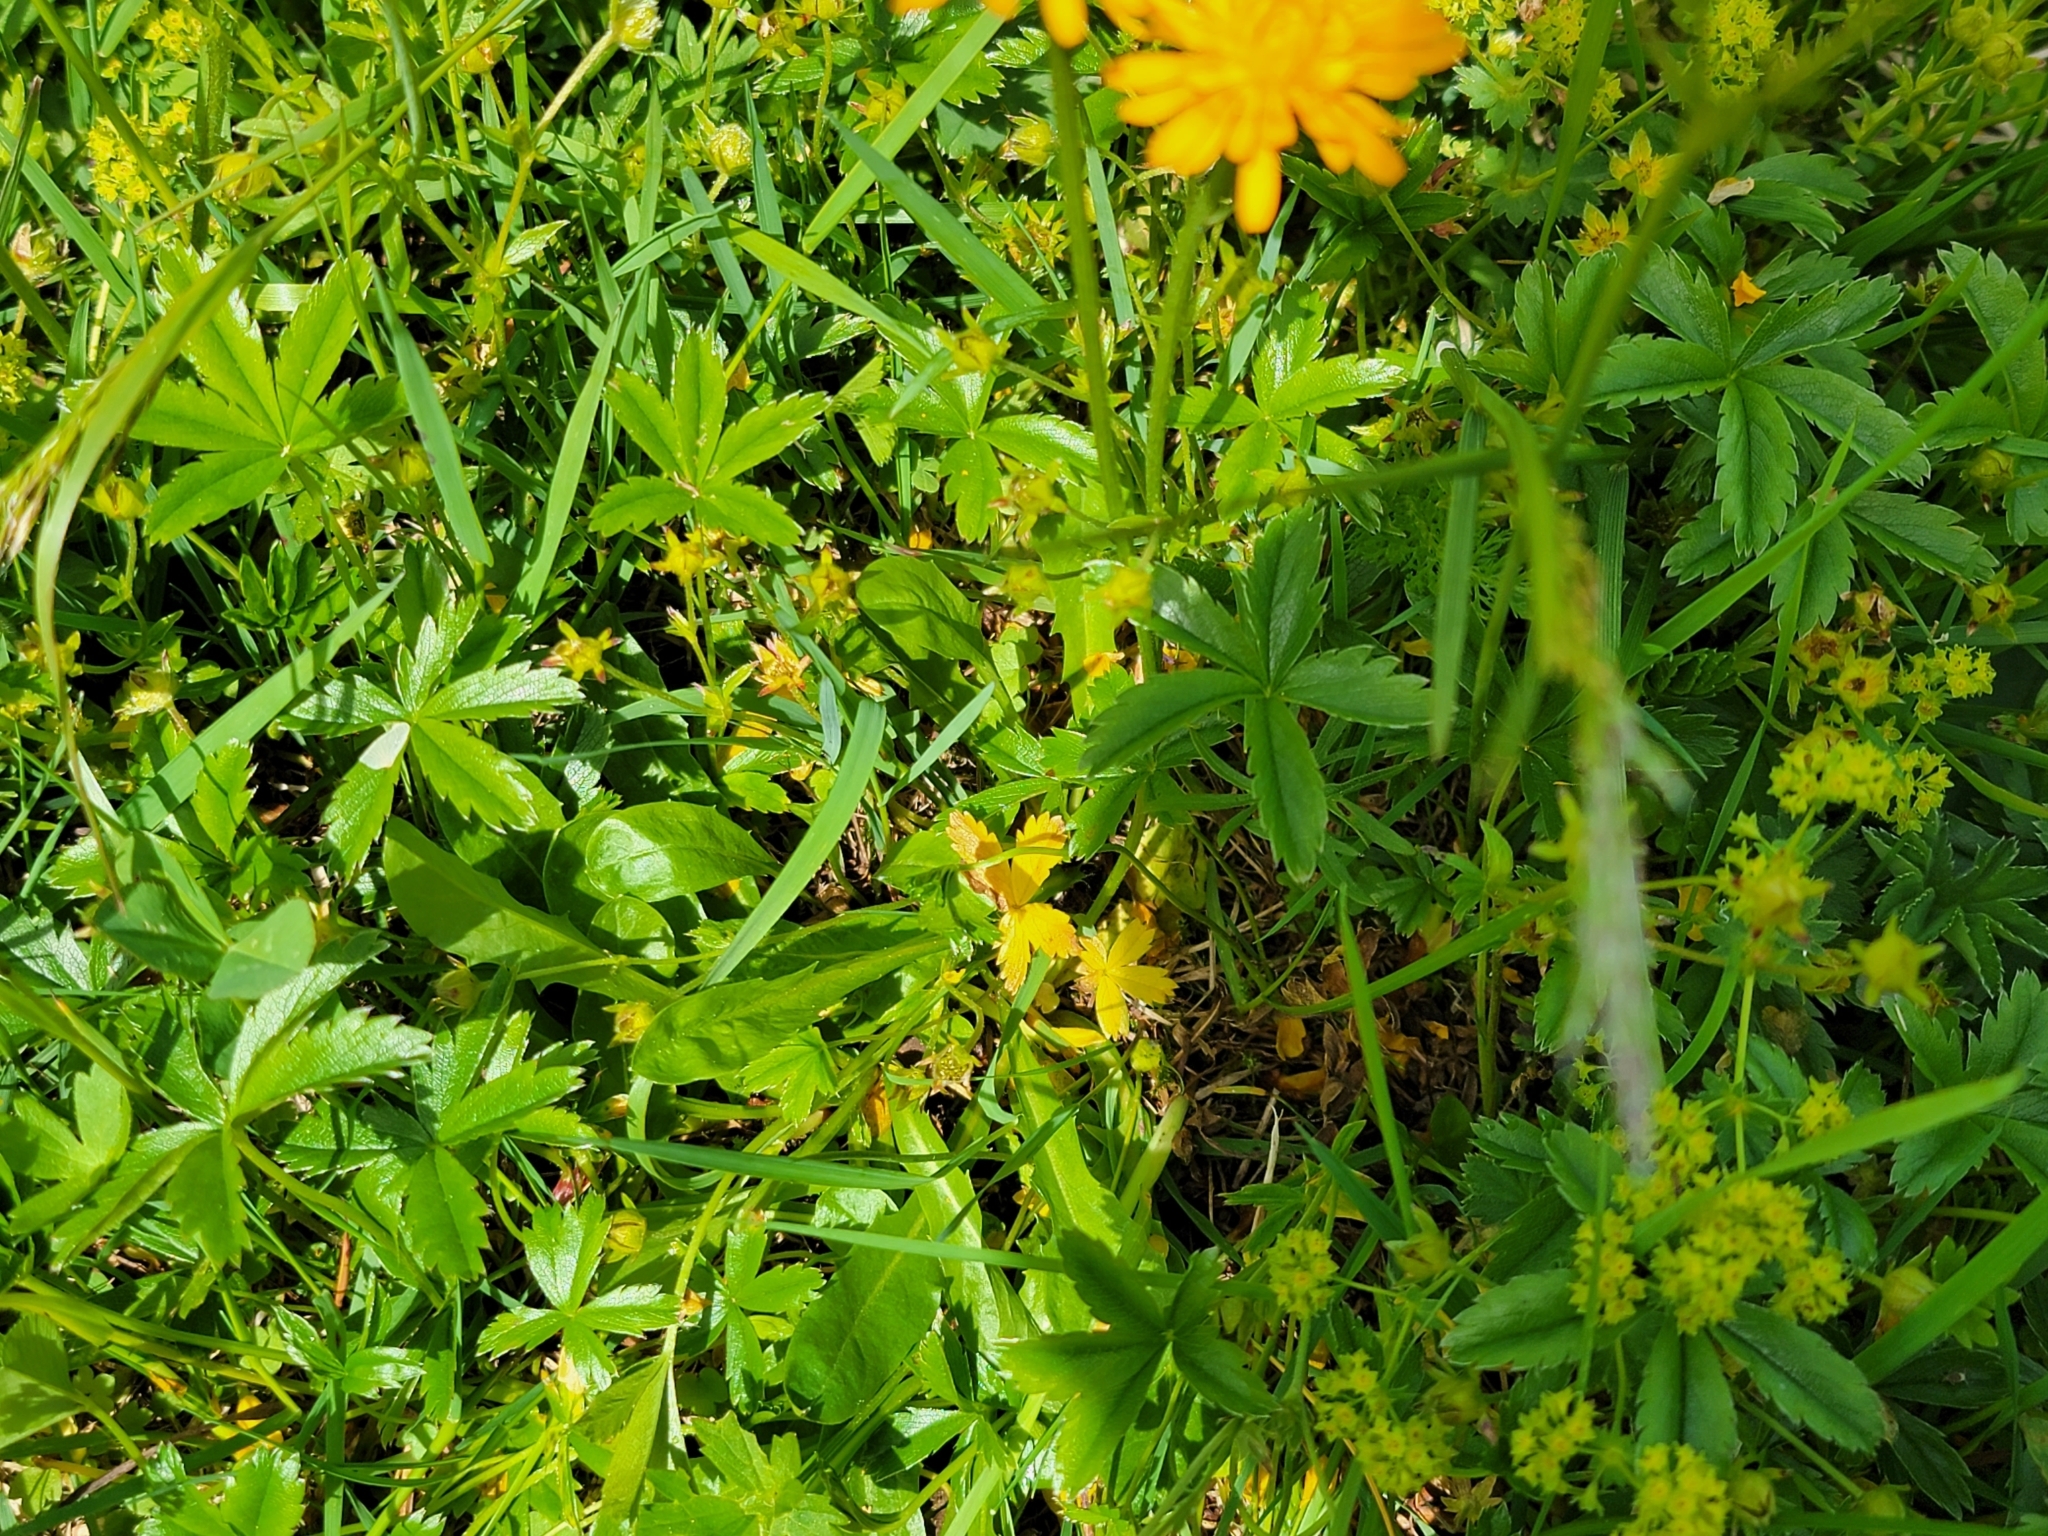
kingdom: Plantae
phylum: Tracheophyta
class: Magnoliopsida
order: Asterales
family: Asteraceae
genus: Crepis
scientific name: Crepis aurea
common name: Golden hawk's-beard
